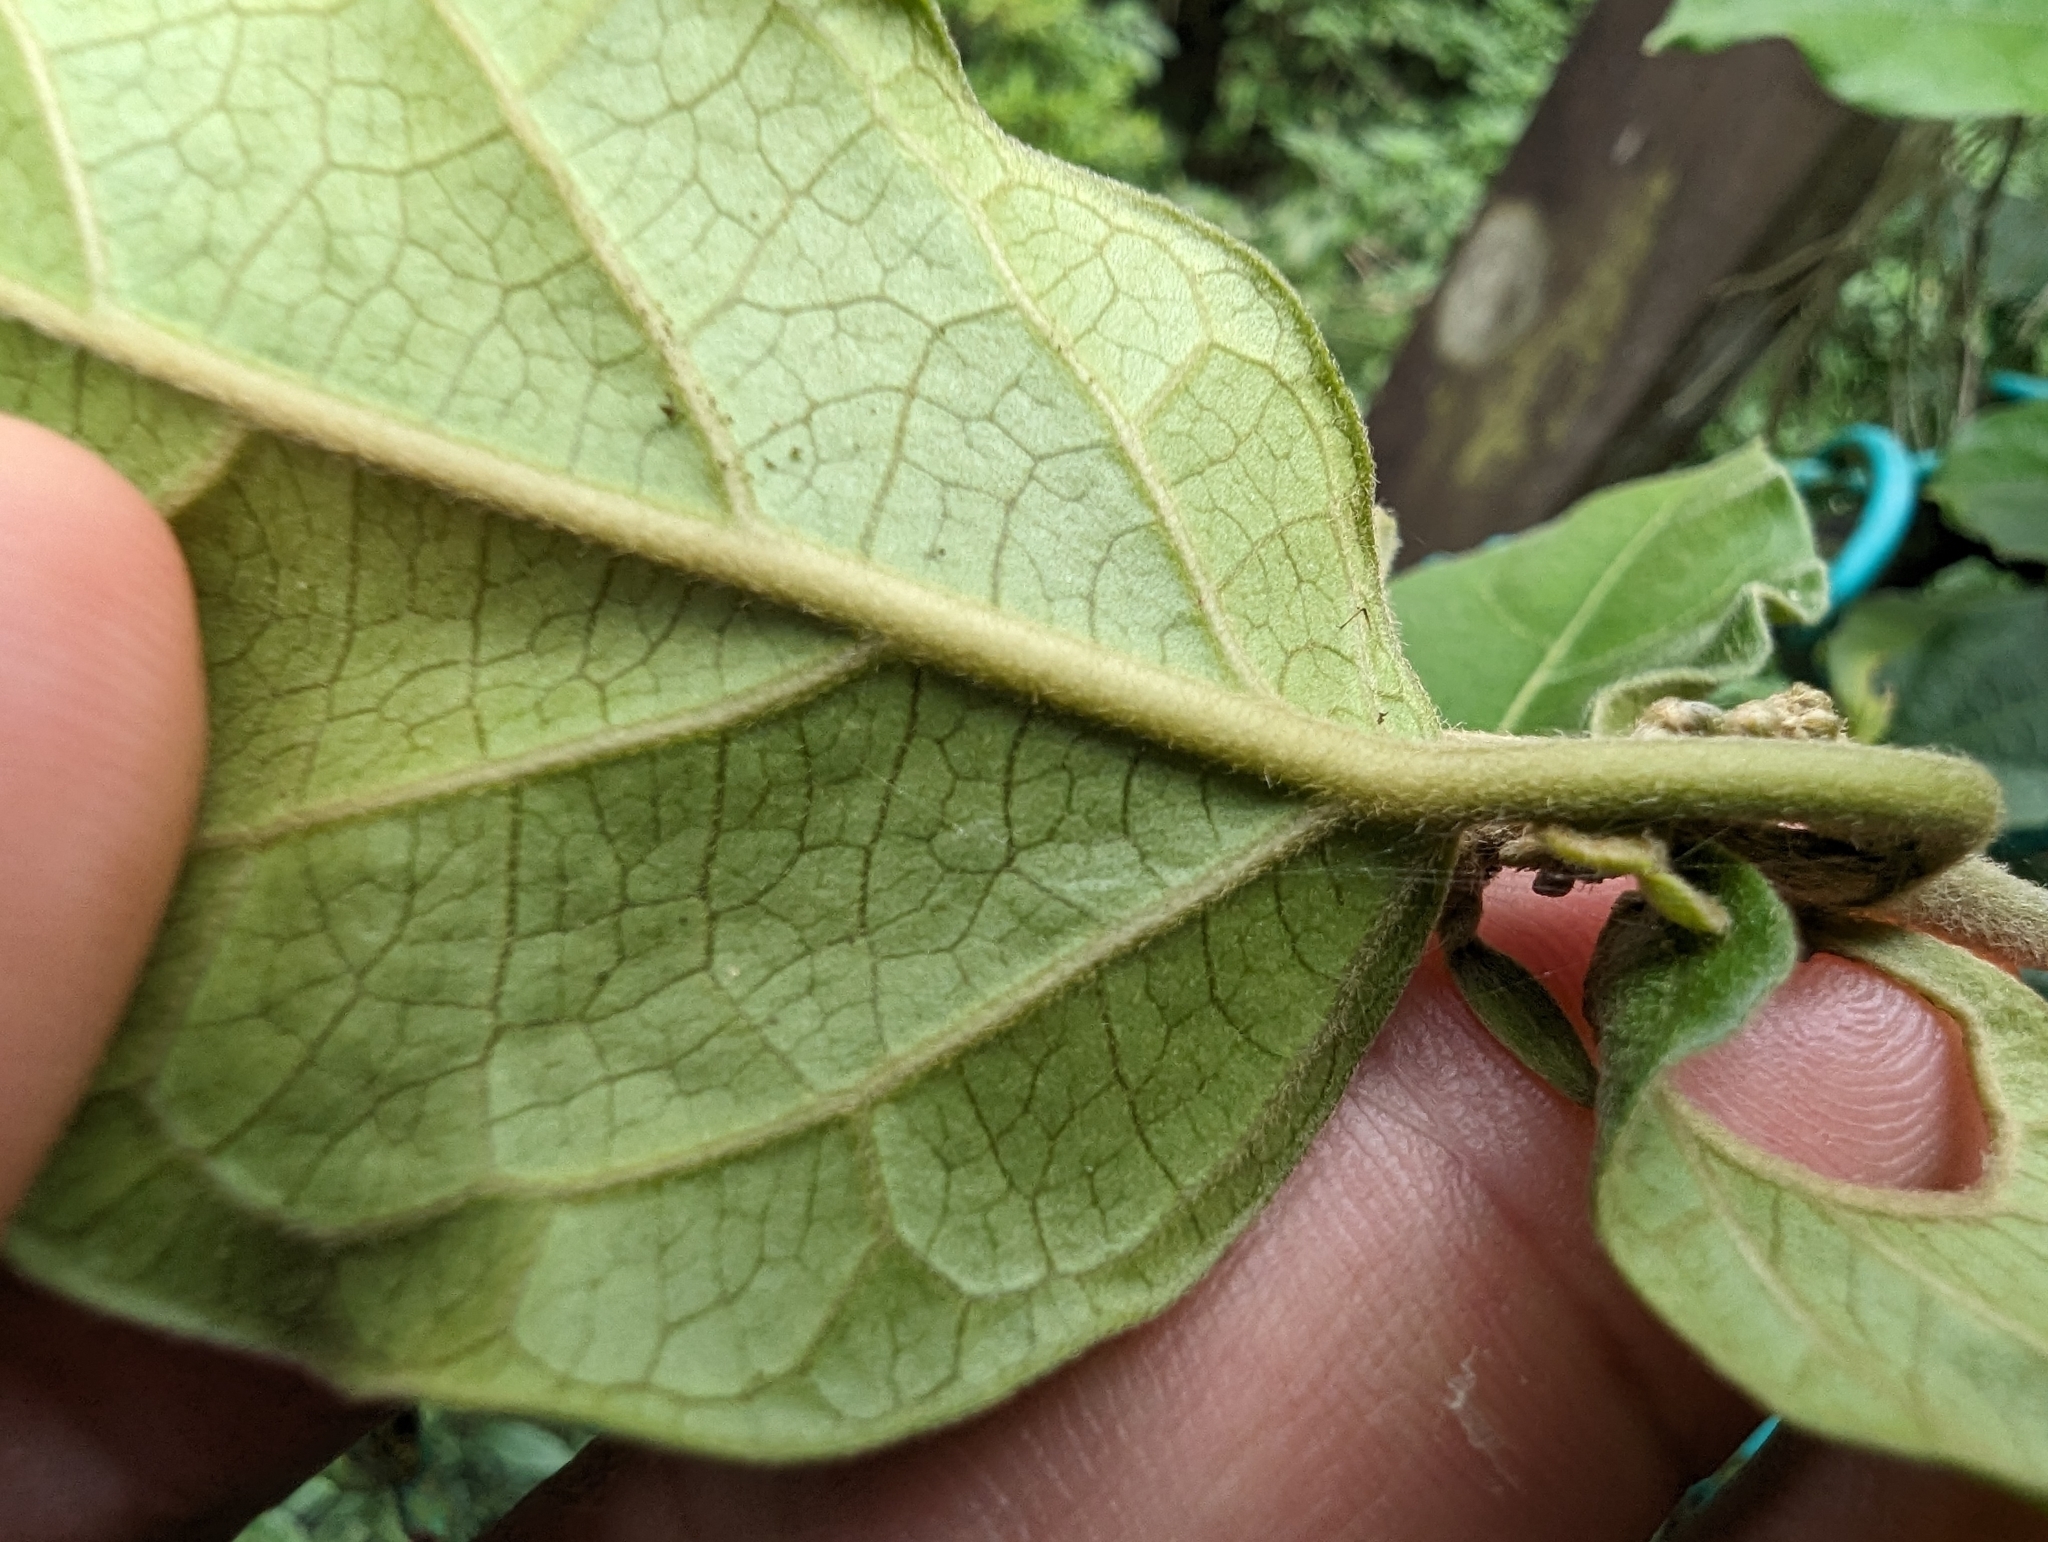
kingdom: Plantae
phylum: Tracheophyta
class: Magnoliopsida
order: Gentianales
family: Apocynaceae
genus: Marsdenia
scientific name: Marsdenia tinctoria
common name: Climbing-indigo
